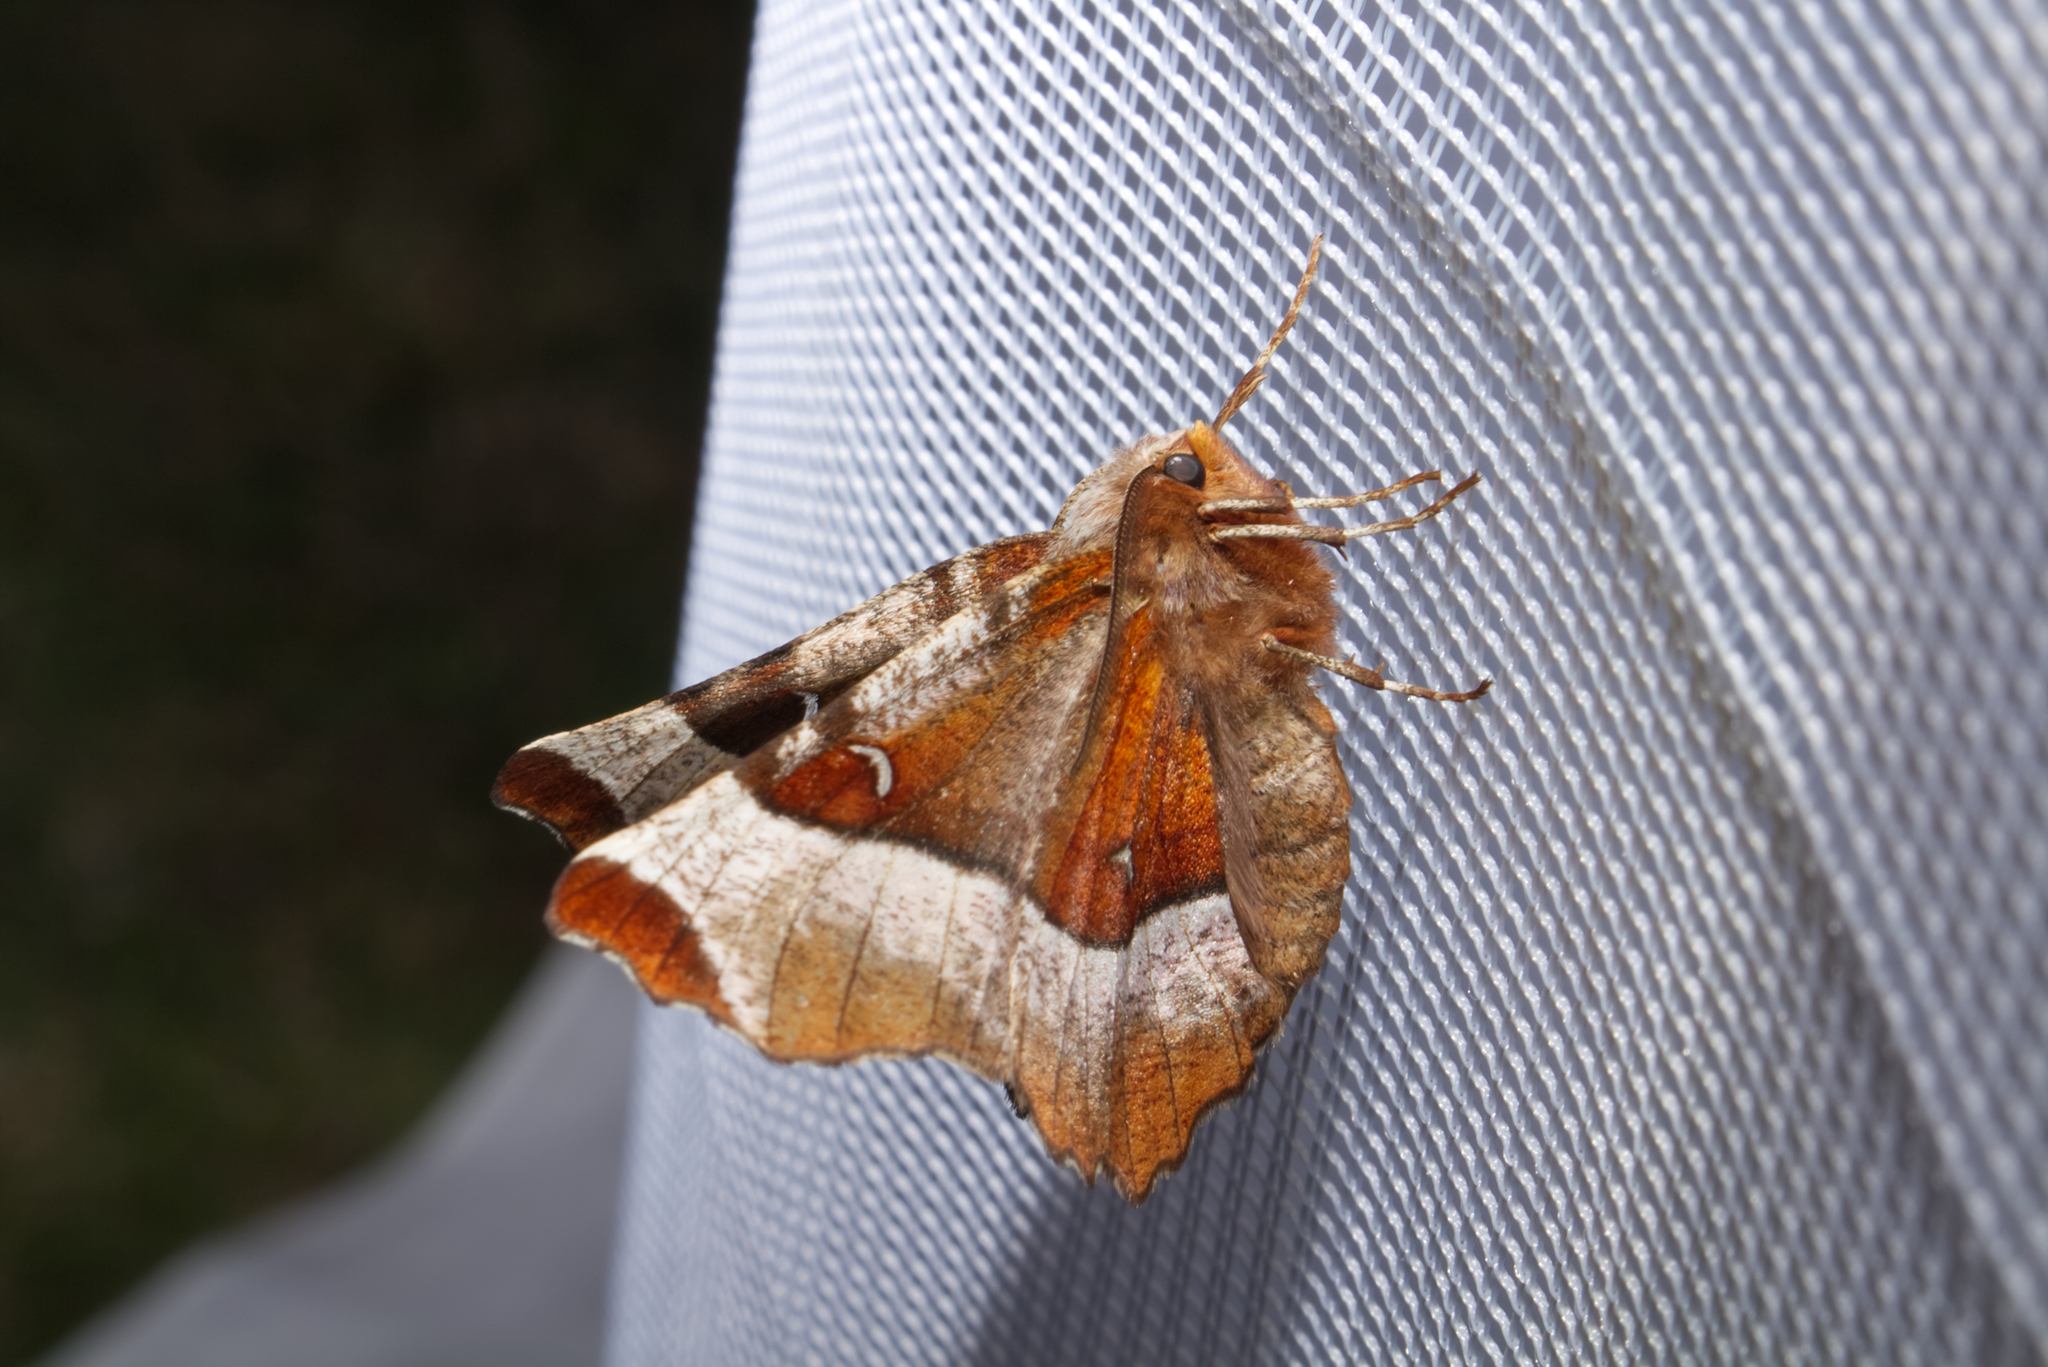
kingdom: Animalia
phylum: Arthropoda
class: Insecta
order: Lepidoptera
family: Geometridae
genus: Selenia
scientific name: Selenia tetralunaria
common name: Purple thorn
